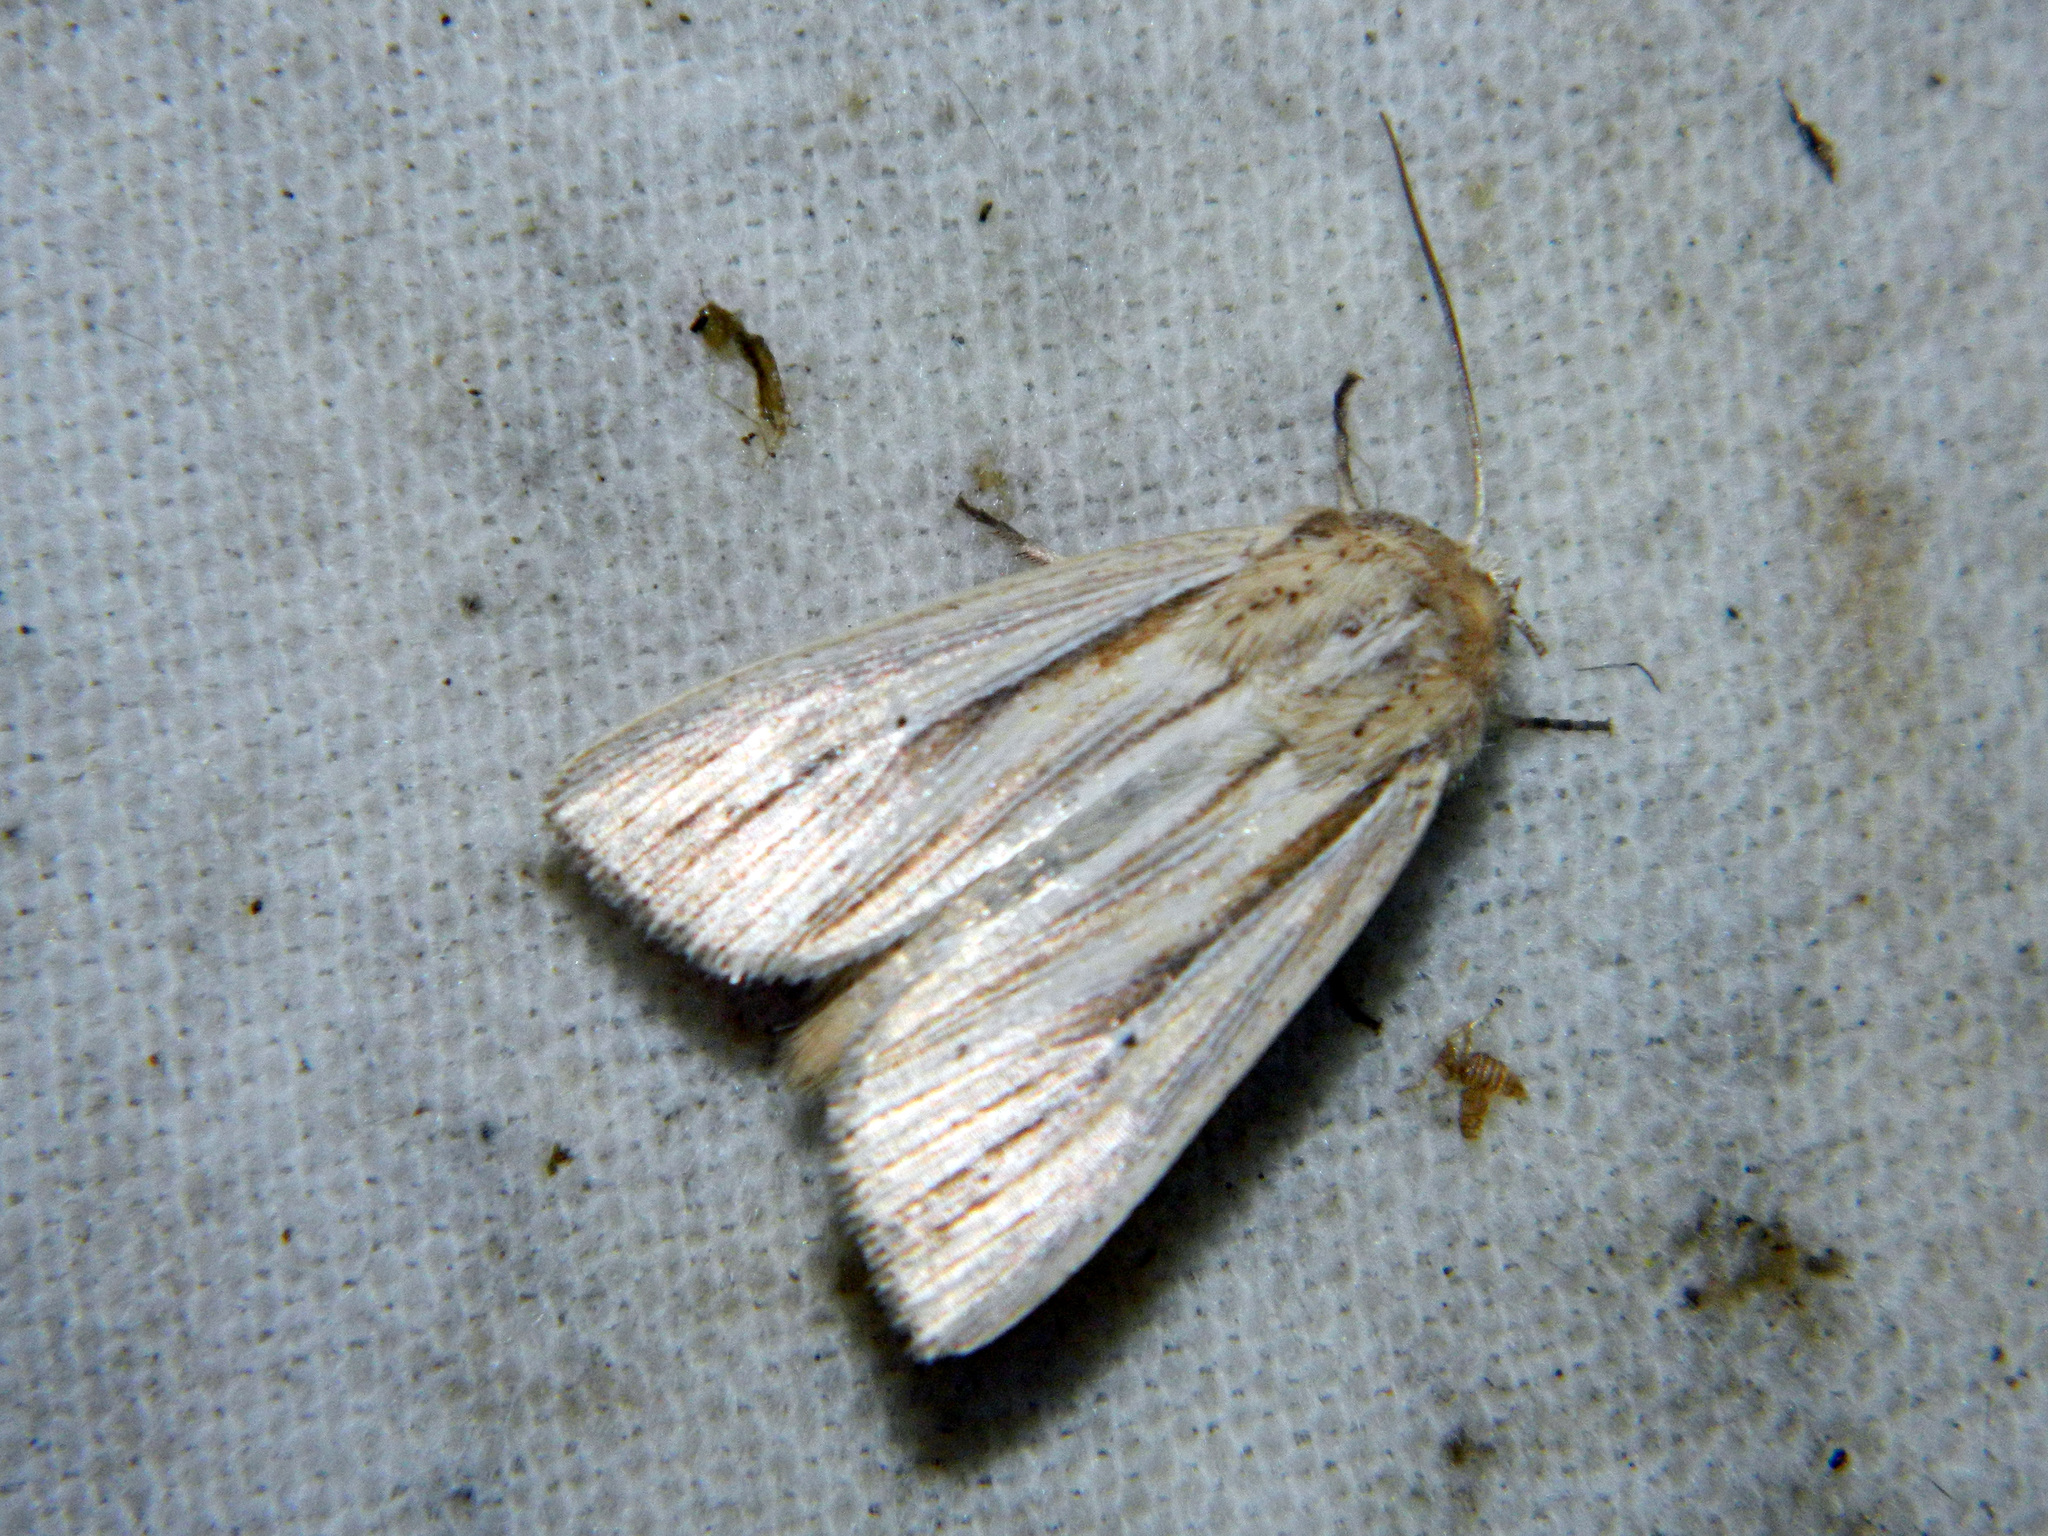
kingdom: Animalia
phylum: Arthropoda
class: Insecta
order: Lepidoptera
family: Noctuidae
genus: Mythimna
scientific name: Mythimna oxygala
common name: Lesser wainscot
